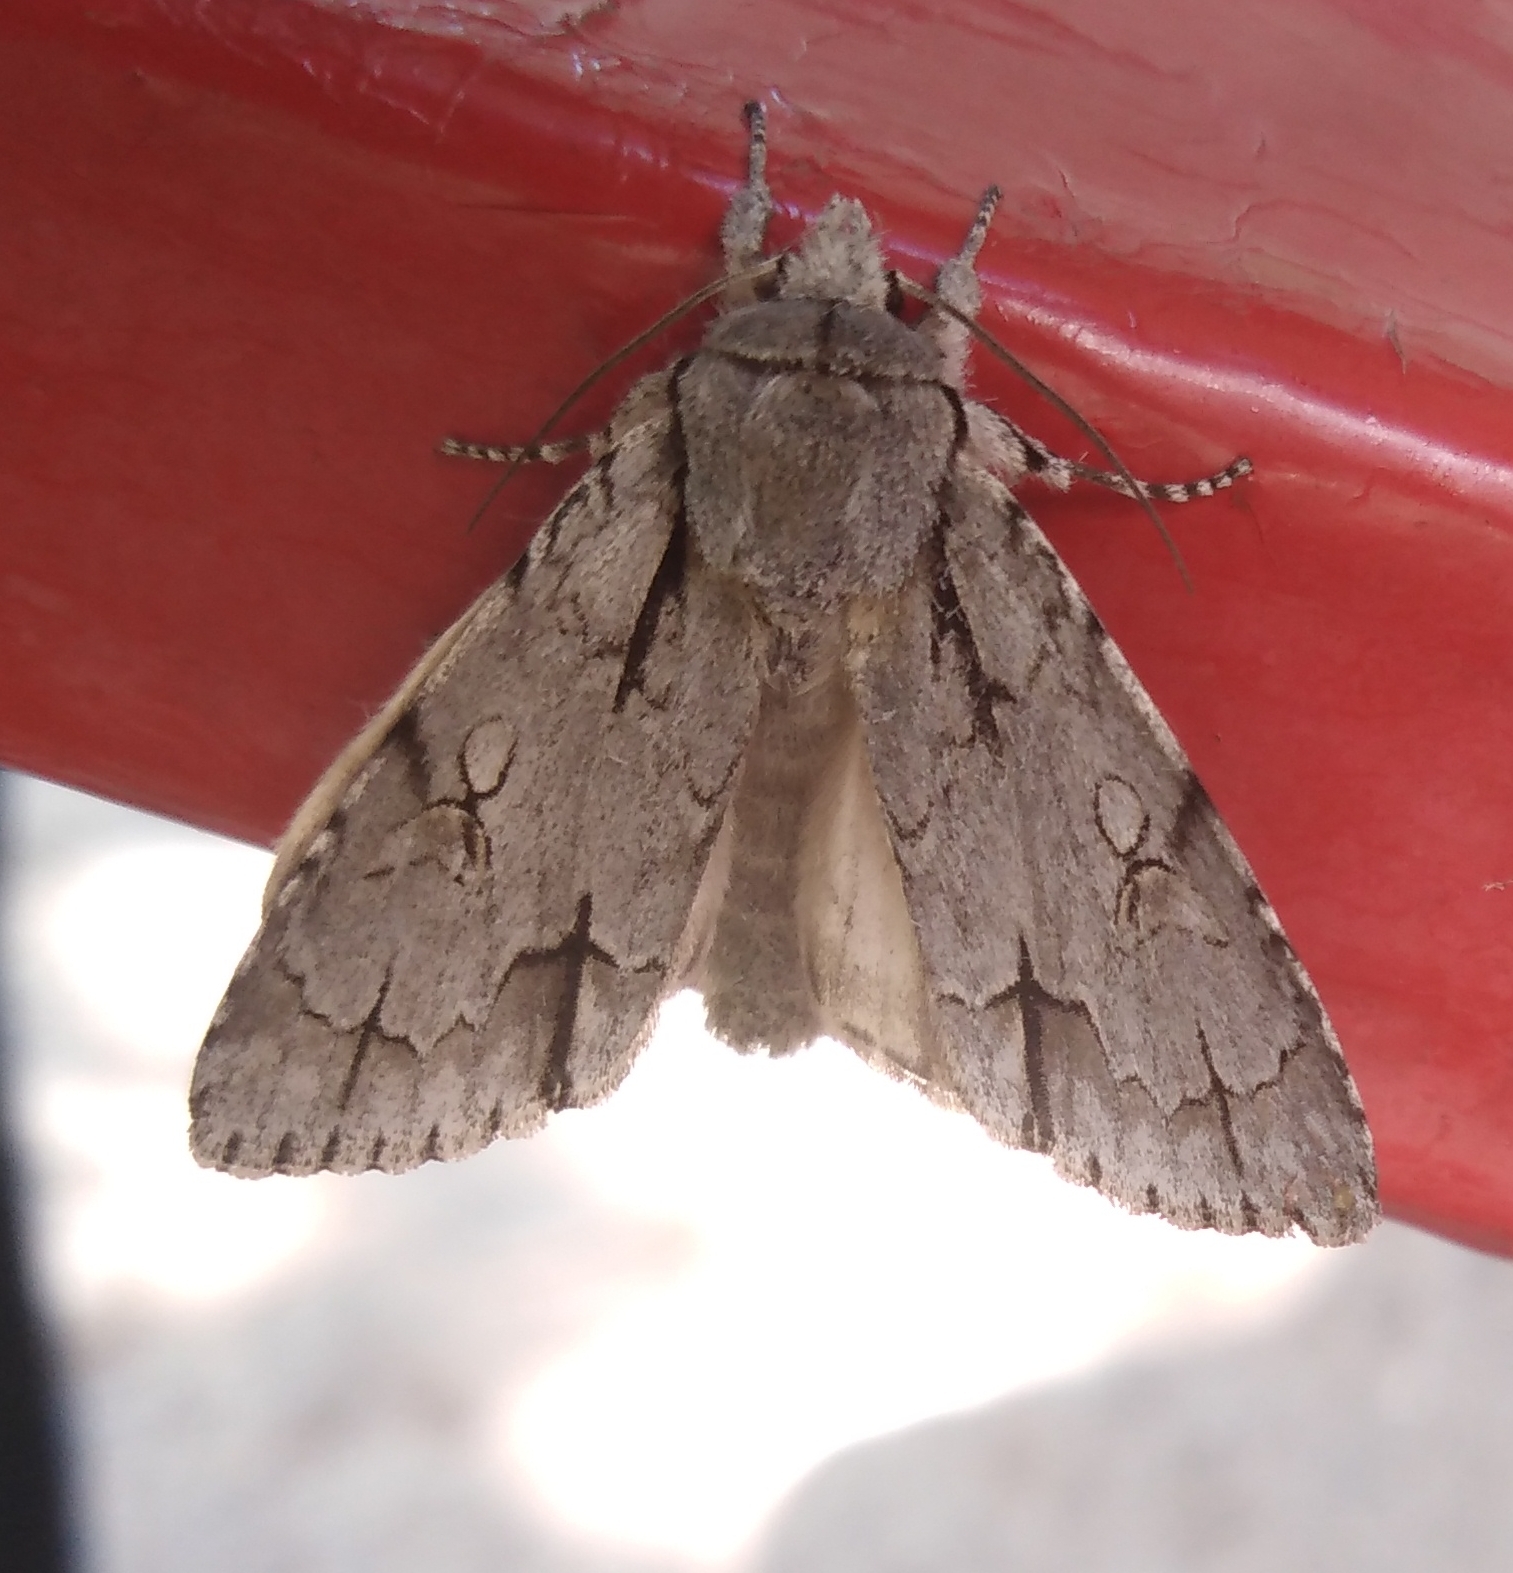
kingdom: Animalia
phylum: Arthropoda
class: Insecta
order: Lepidoptera
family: Noctuidae
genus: Acronicta
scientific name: Acronicta psi
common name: Grey dagger
